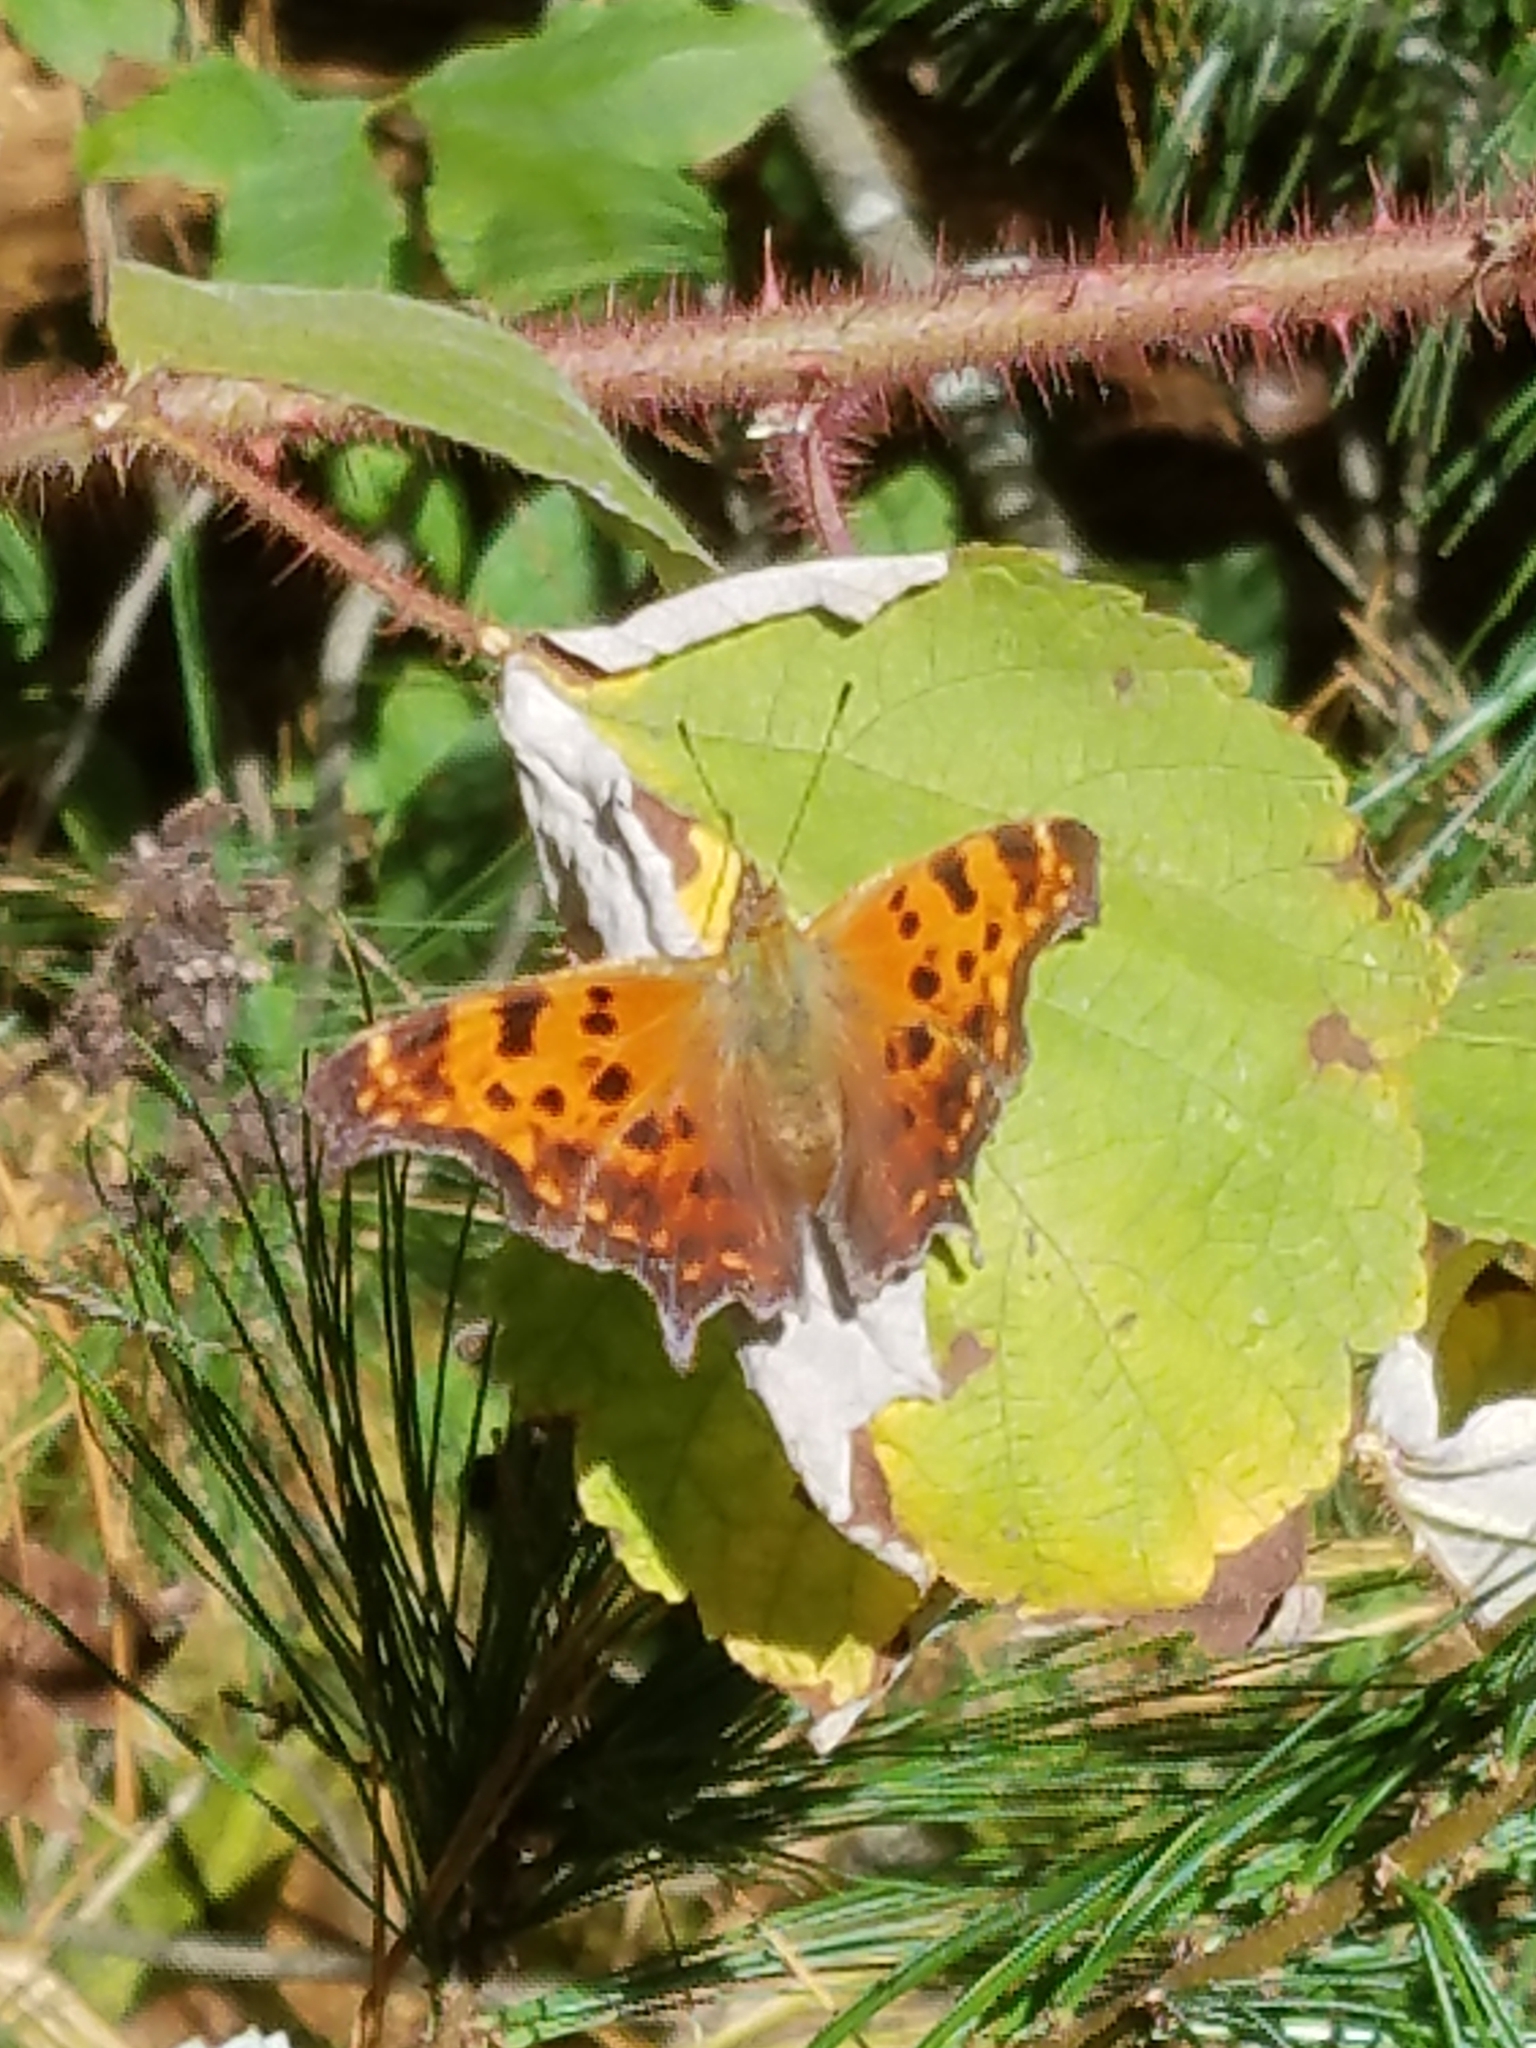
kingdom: Animalia
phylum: Arthropoda
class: Insecta
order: Lepidoptera
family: Nymphalidae
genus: Polygonia
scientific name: Polygonia comma
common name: Eastern comma
